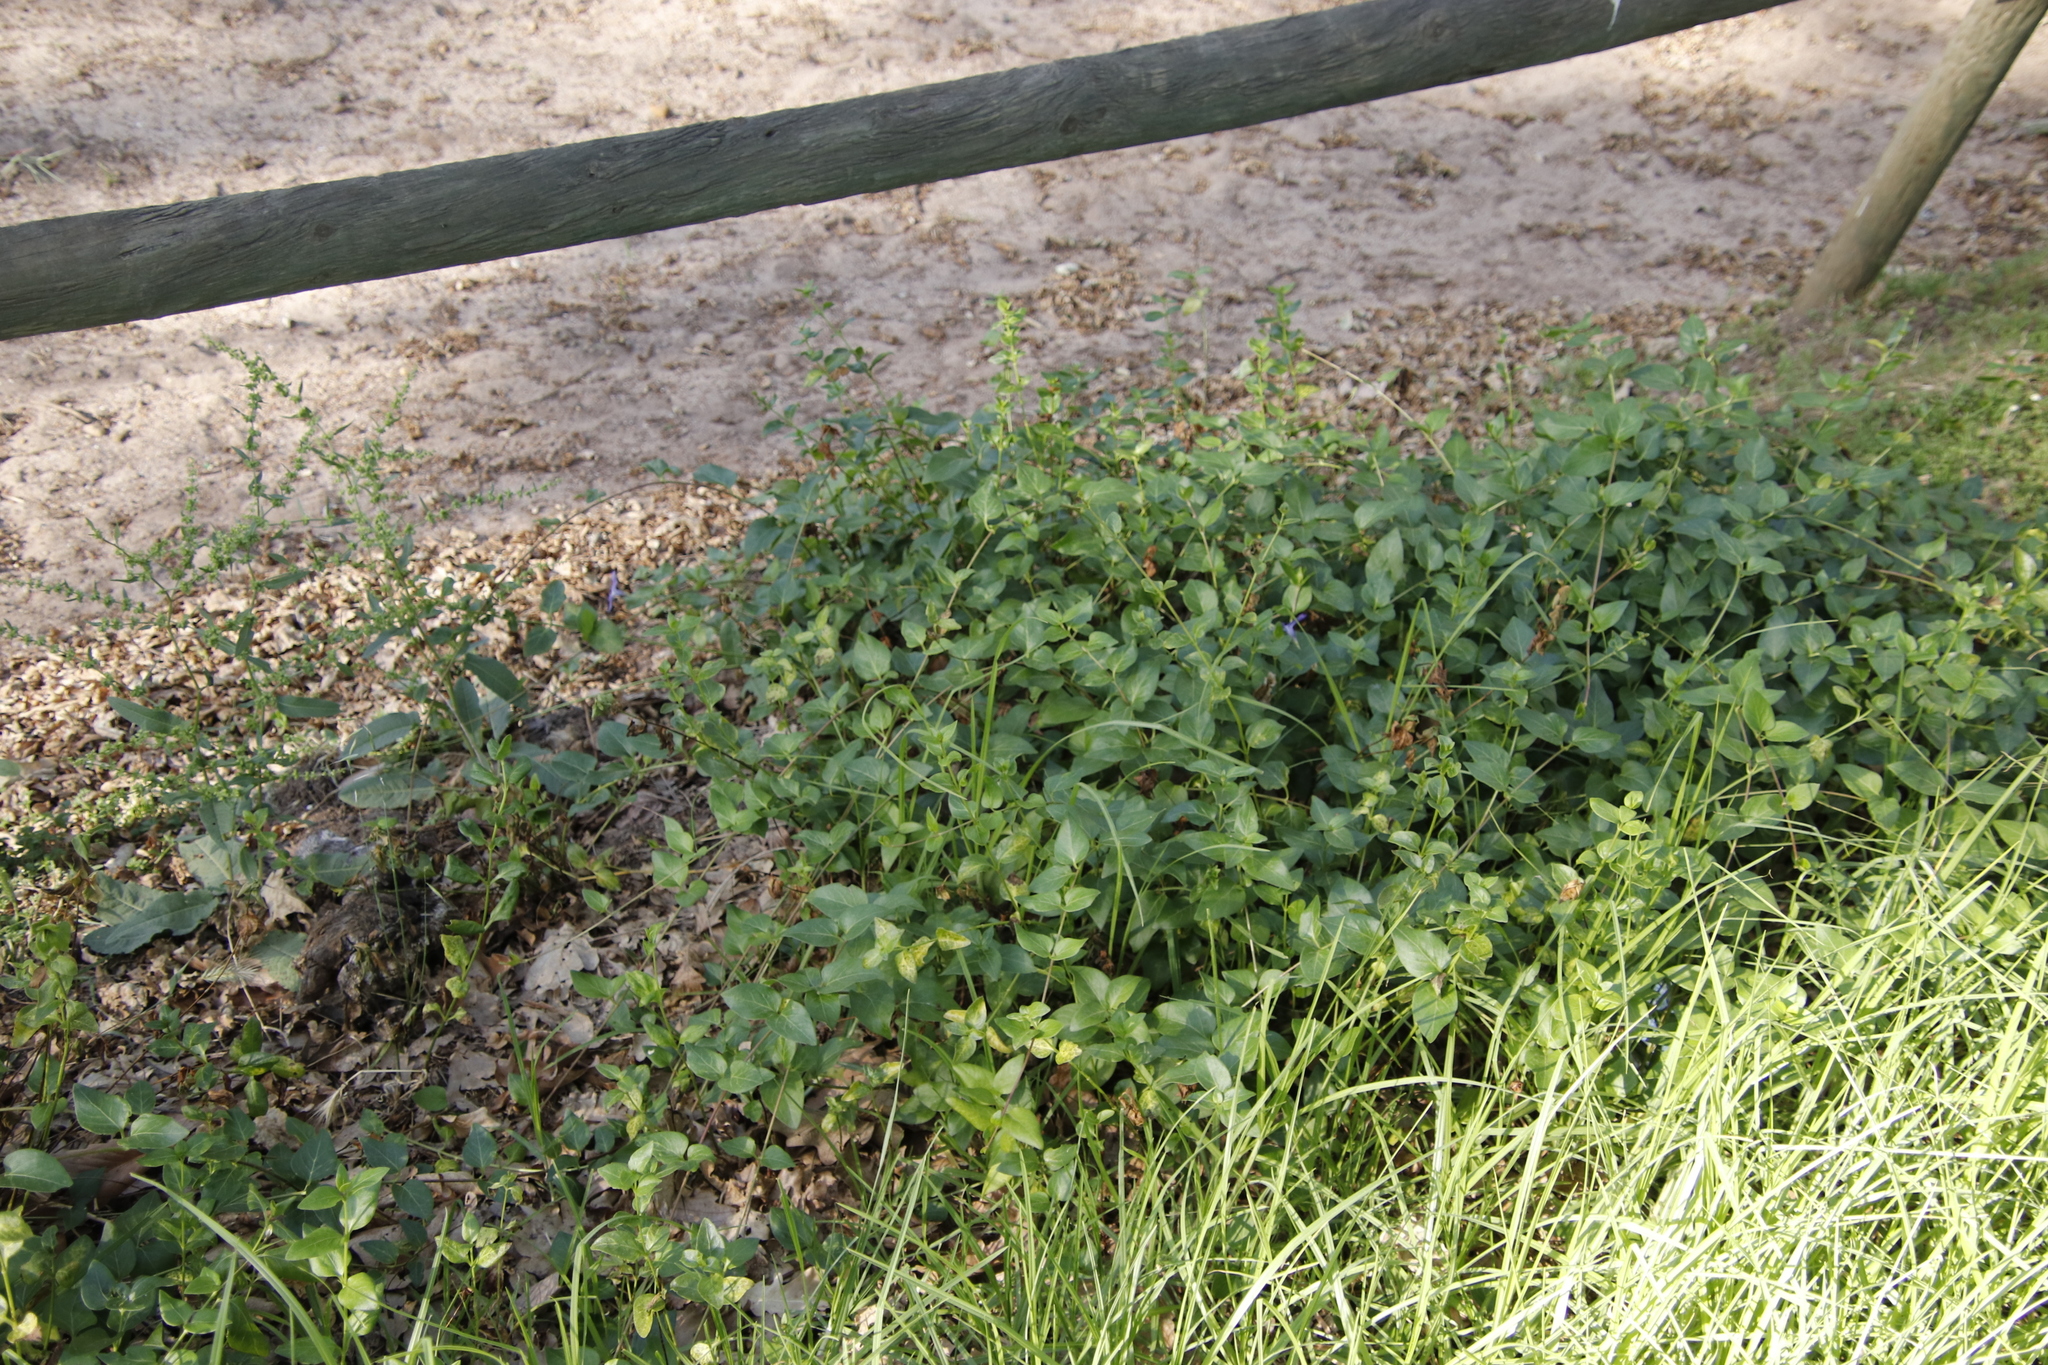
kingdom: Plantae
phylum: Tracheophyta
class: Magnoliopsida
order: Gentianales
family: Apocynaceae
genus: Vinca
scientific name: Vinca major
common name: Greater periwinkle
